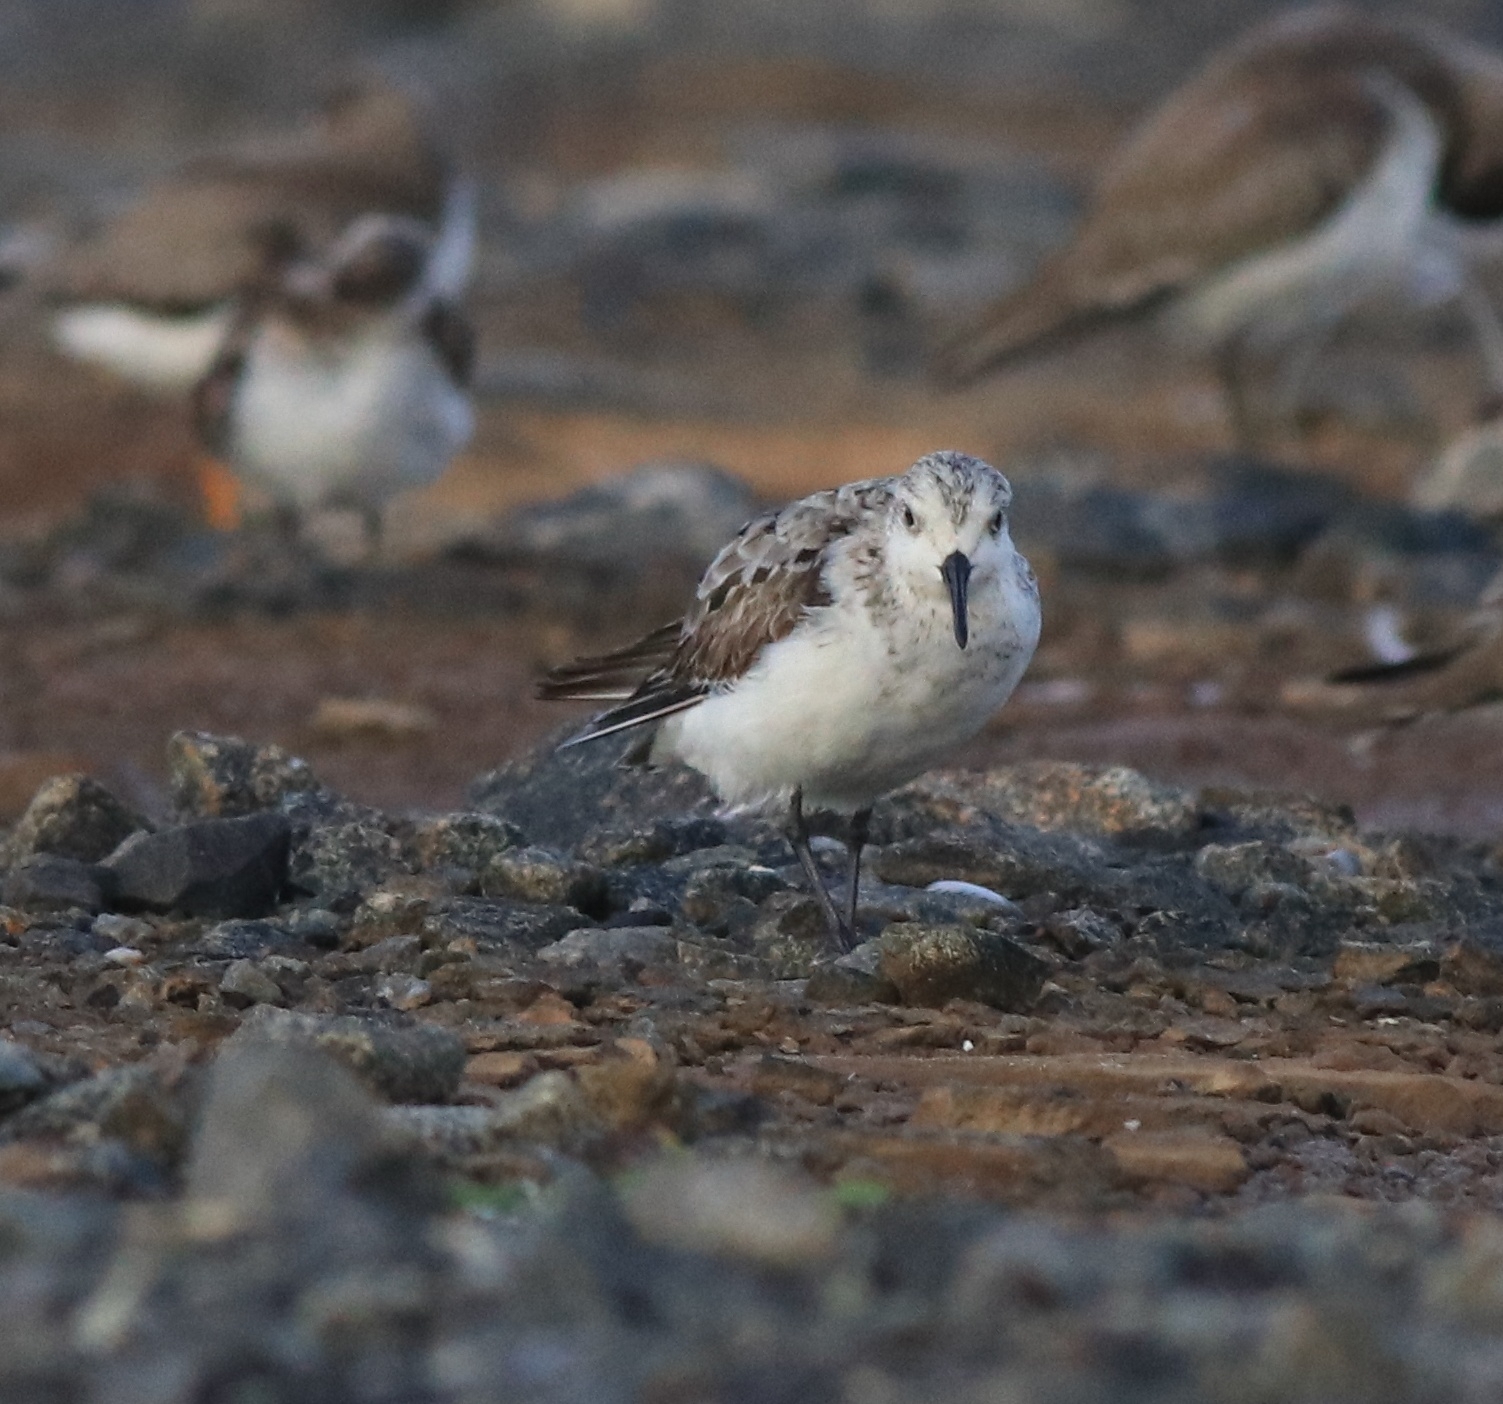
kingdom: Animalia
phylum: Chordata
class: Aves
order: Charadriiformes
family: Scolopacidae
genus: Calidris
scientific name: Calidris alba
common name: Sanderling
